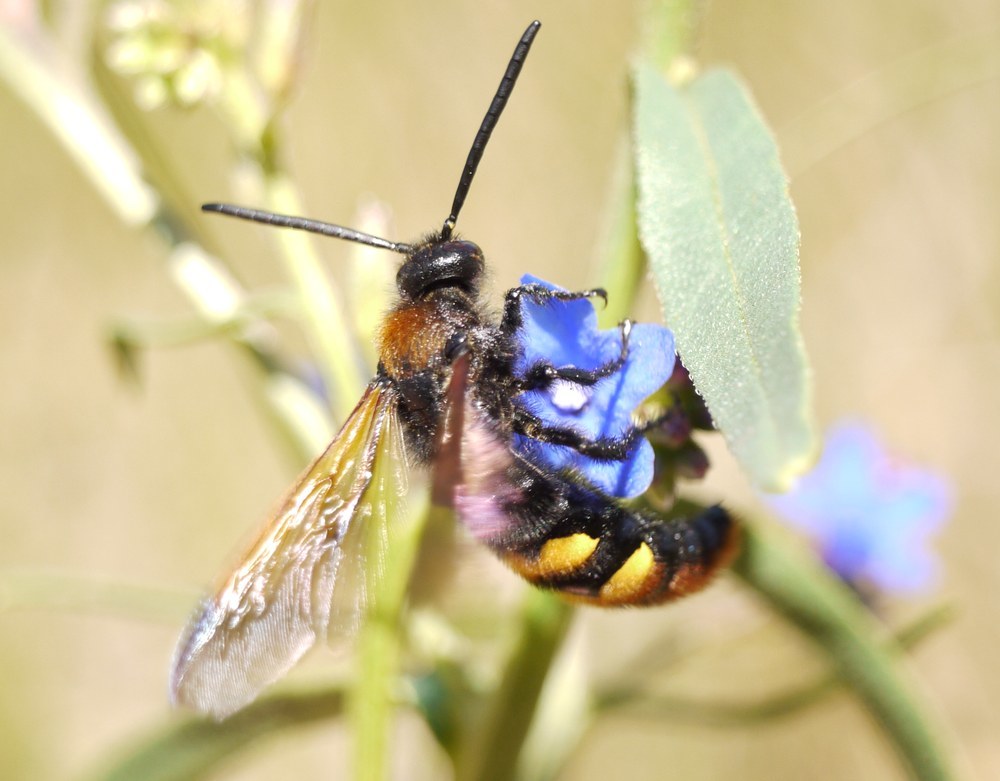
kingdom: Animalia
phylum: Arthropoda
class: Insecta
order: Hymenoptera
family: Scoliidae
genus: Megascolia
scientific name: Megascolia maculata
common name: Mammoth wasp
